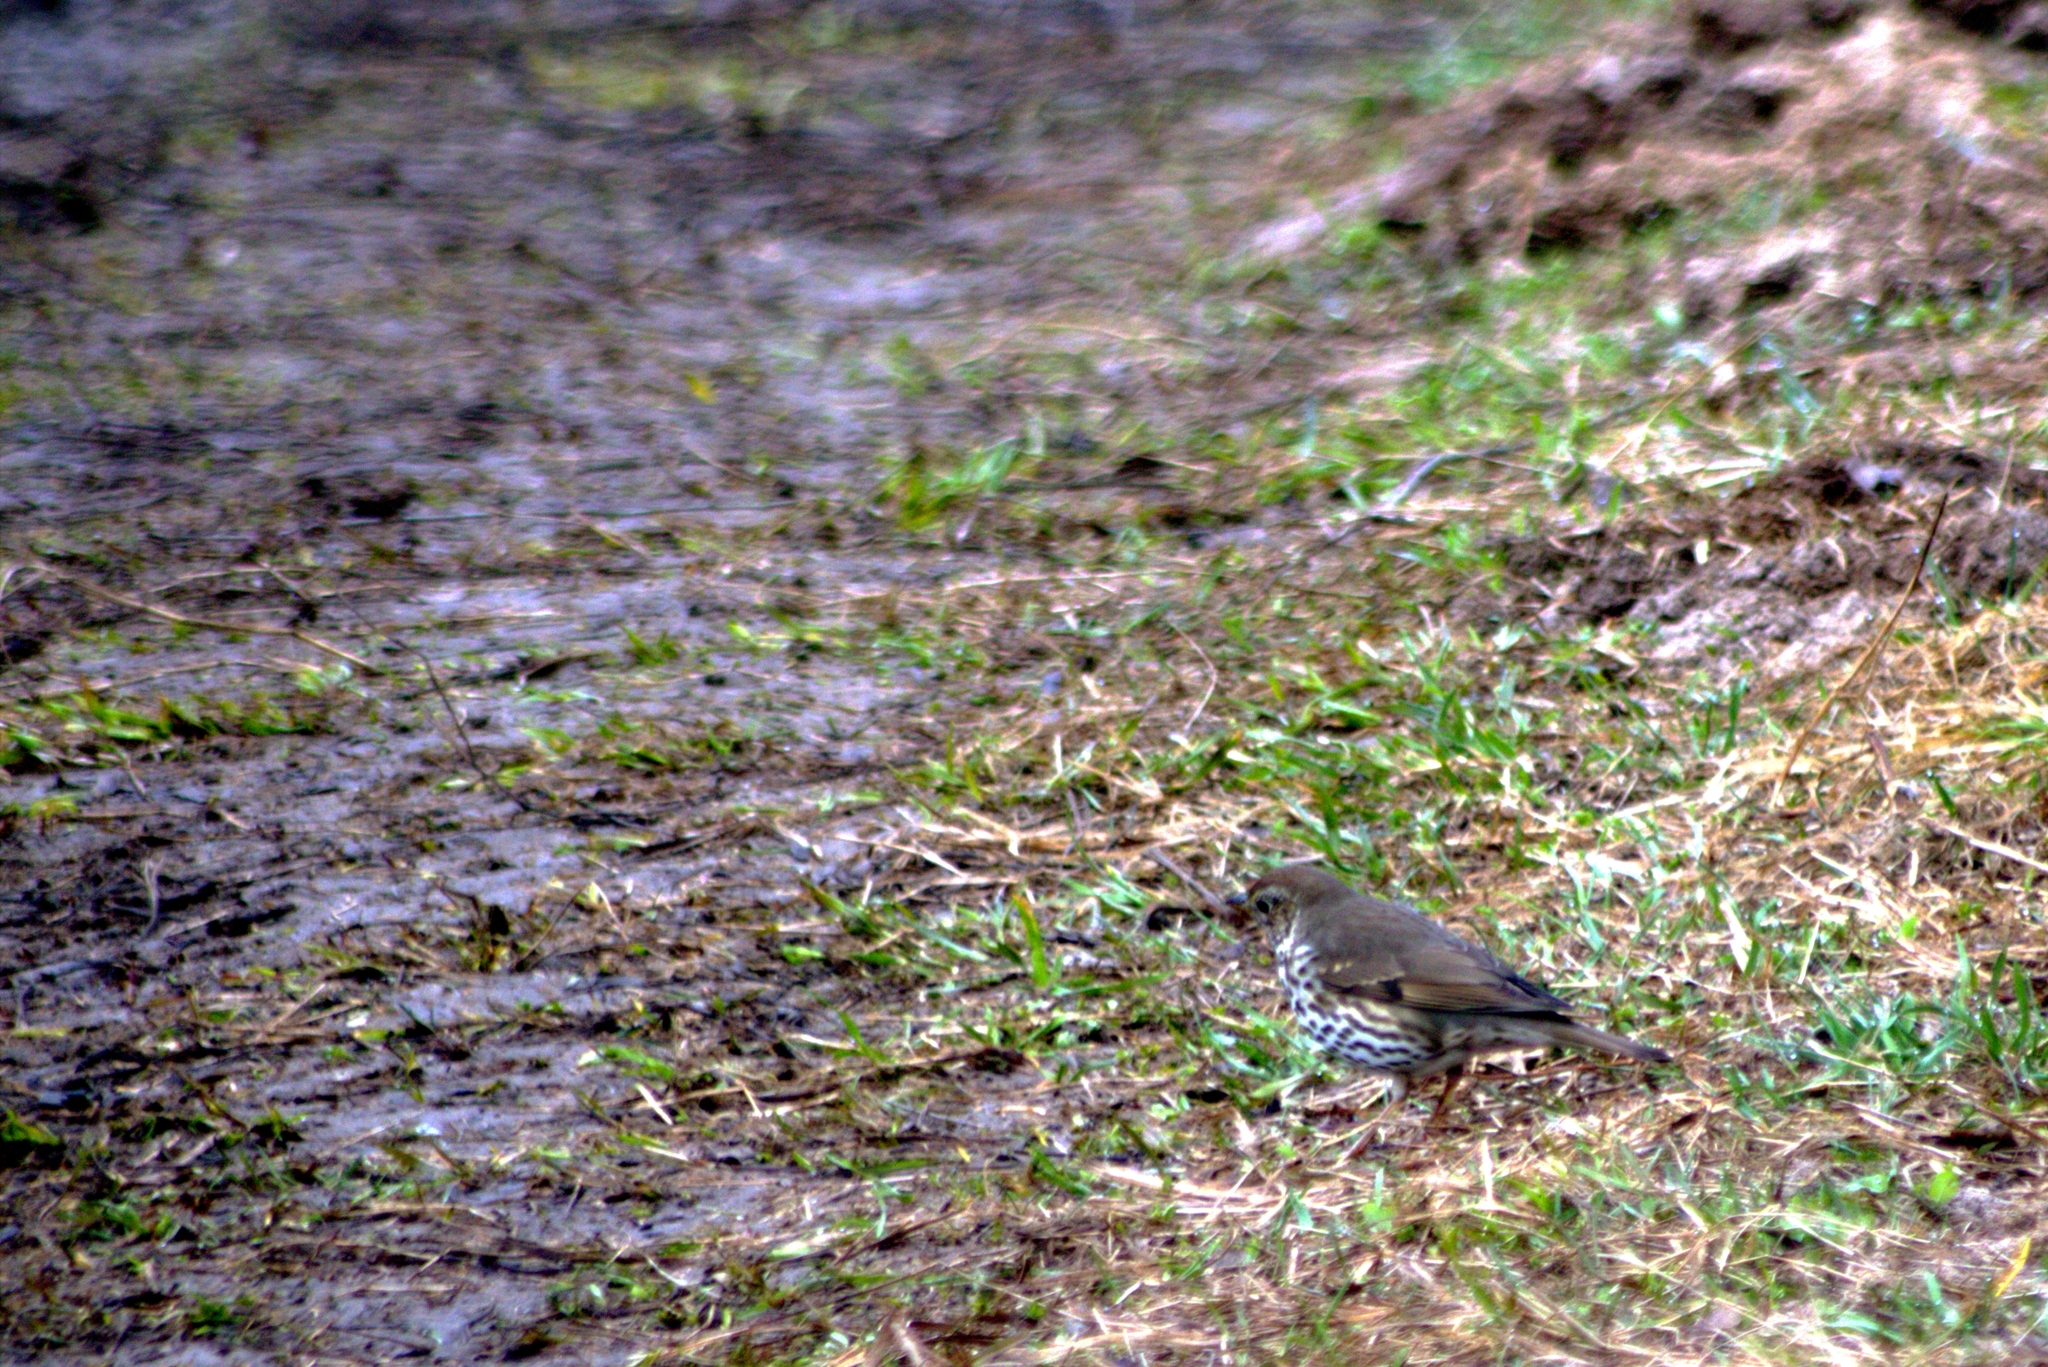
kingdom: Animalia
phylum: Chordata
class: Aves
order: Passeriformes
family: Turdidae
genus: Turdus
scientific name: Turdus philomelos
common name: Song thrush
